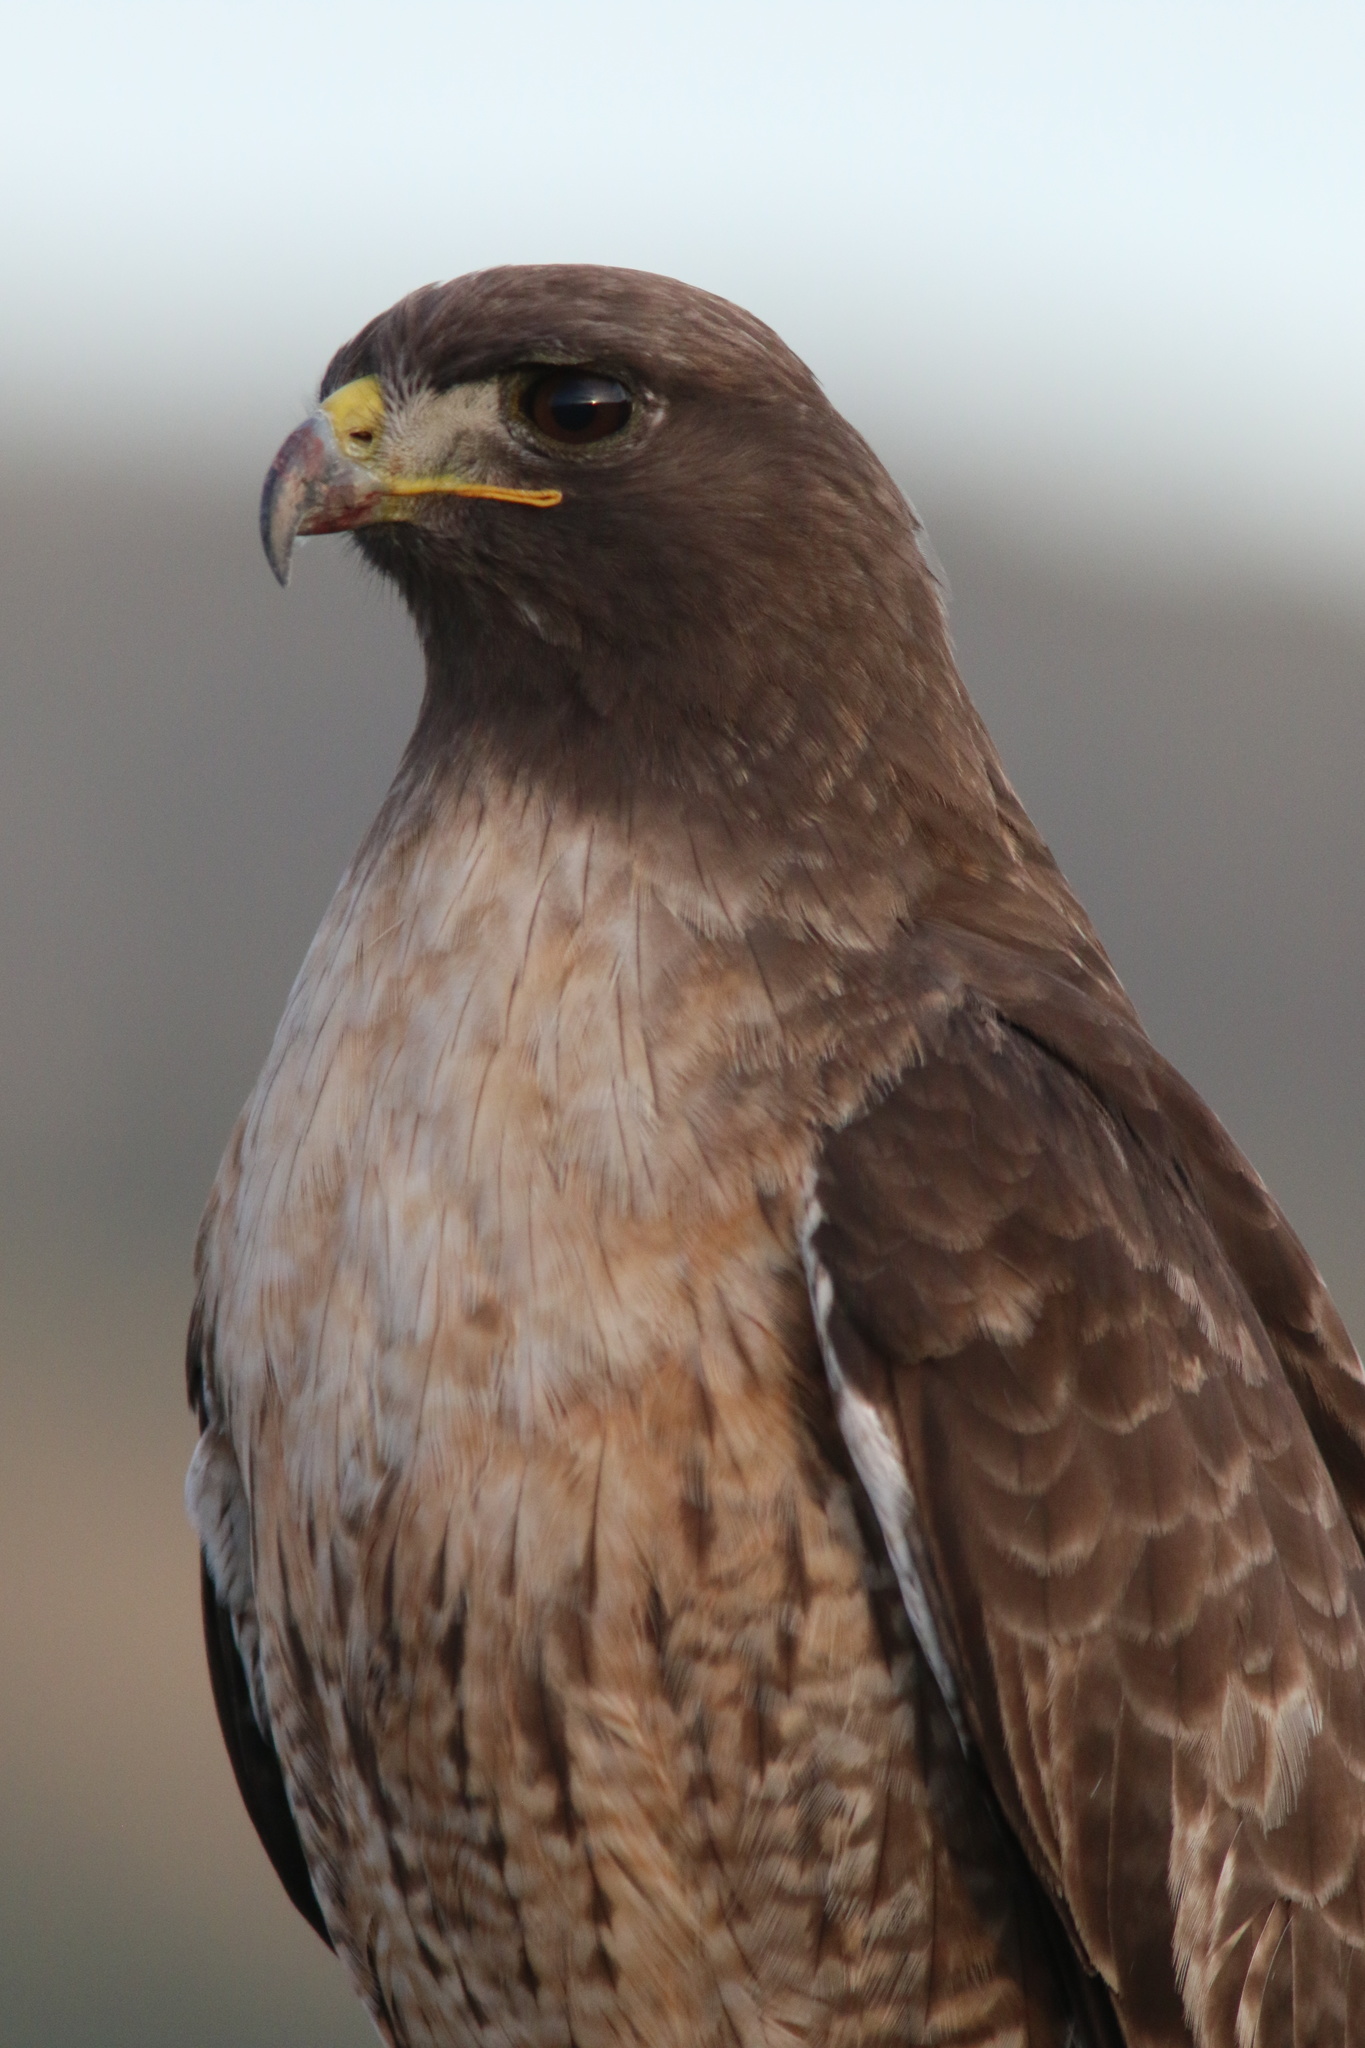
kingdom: Animalia
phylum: Chordata
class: Aves
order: Accipitriformes
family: Accipitridae
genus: Buteo
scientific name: Buteo jamaicensis
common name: Red-tailed hawk
